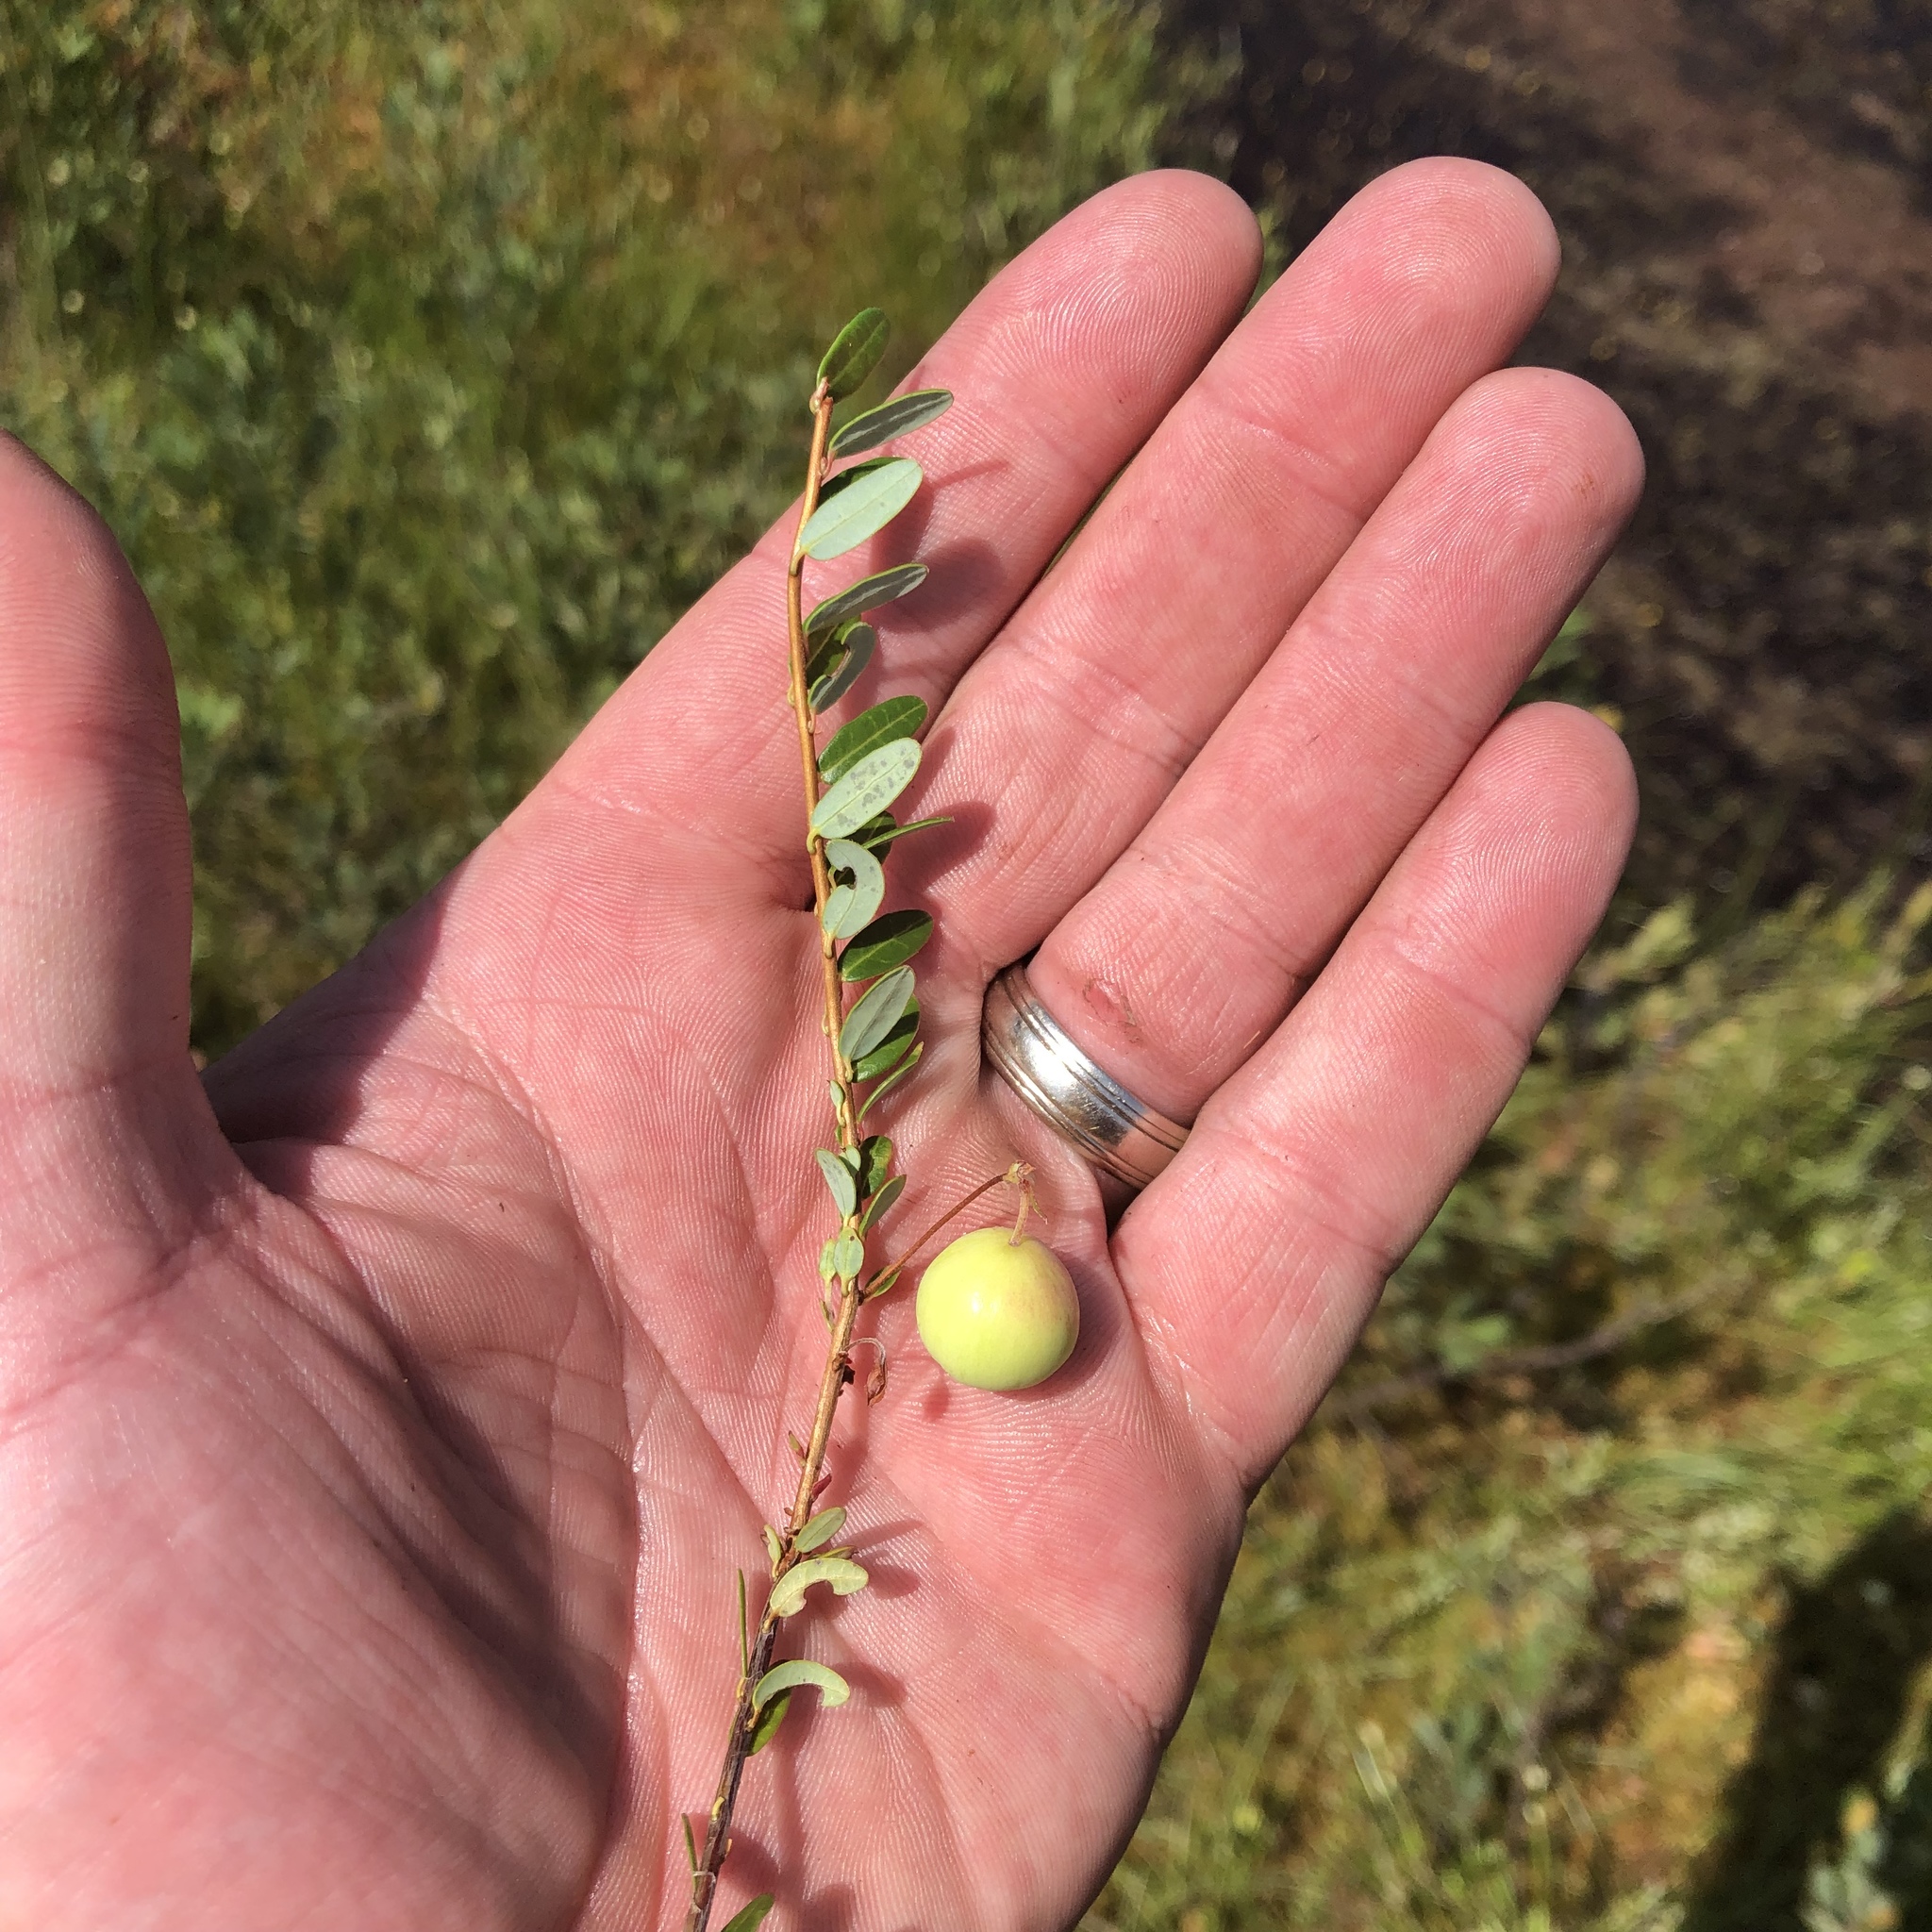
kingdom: Plantae
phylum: Tracheophyta
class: Magnoliopsida
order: Ericales
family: Ericaceae
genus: Vaccinium
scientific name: Vaccinium macrocarpon
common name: American cranberry
